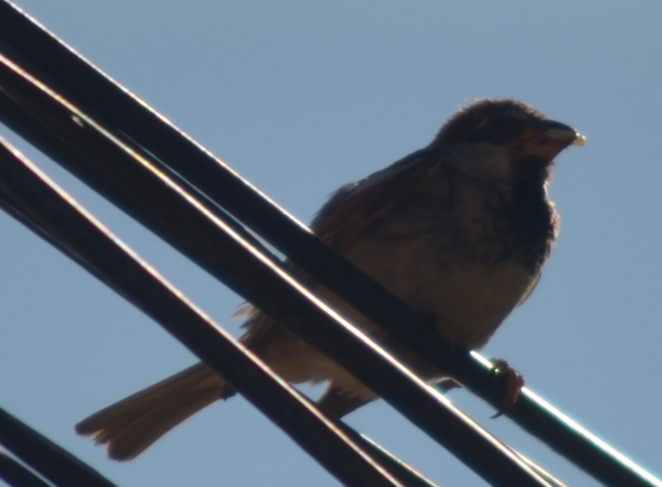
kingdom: Animalia
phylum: Chordata
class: Aves
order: Passeriformes
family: Passeridae
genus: Passer
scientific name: Passer domesticus
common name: House sparrow
